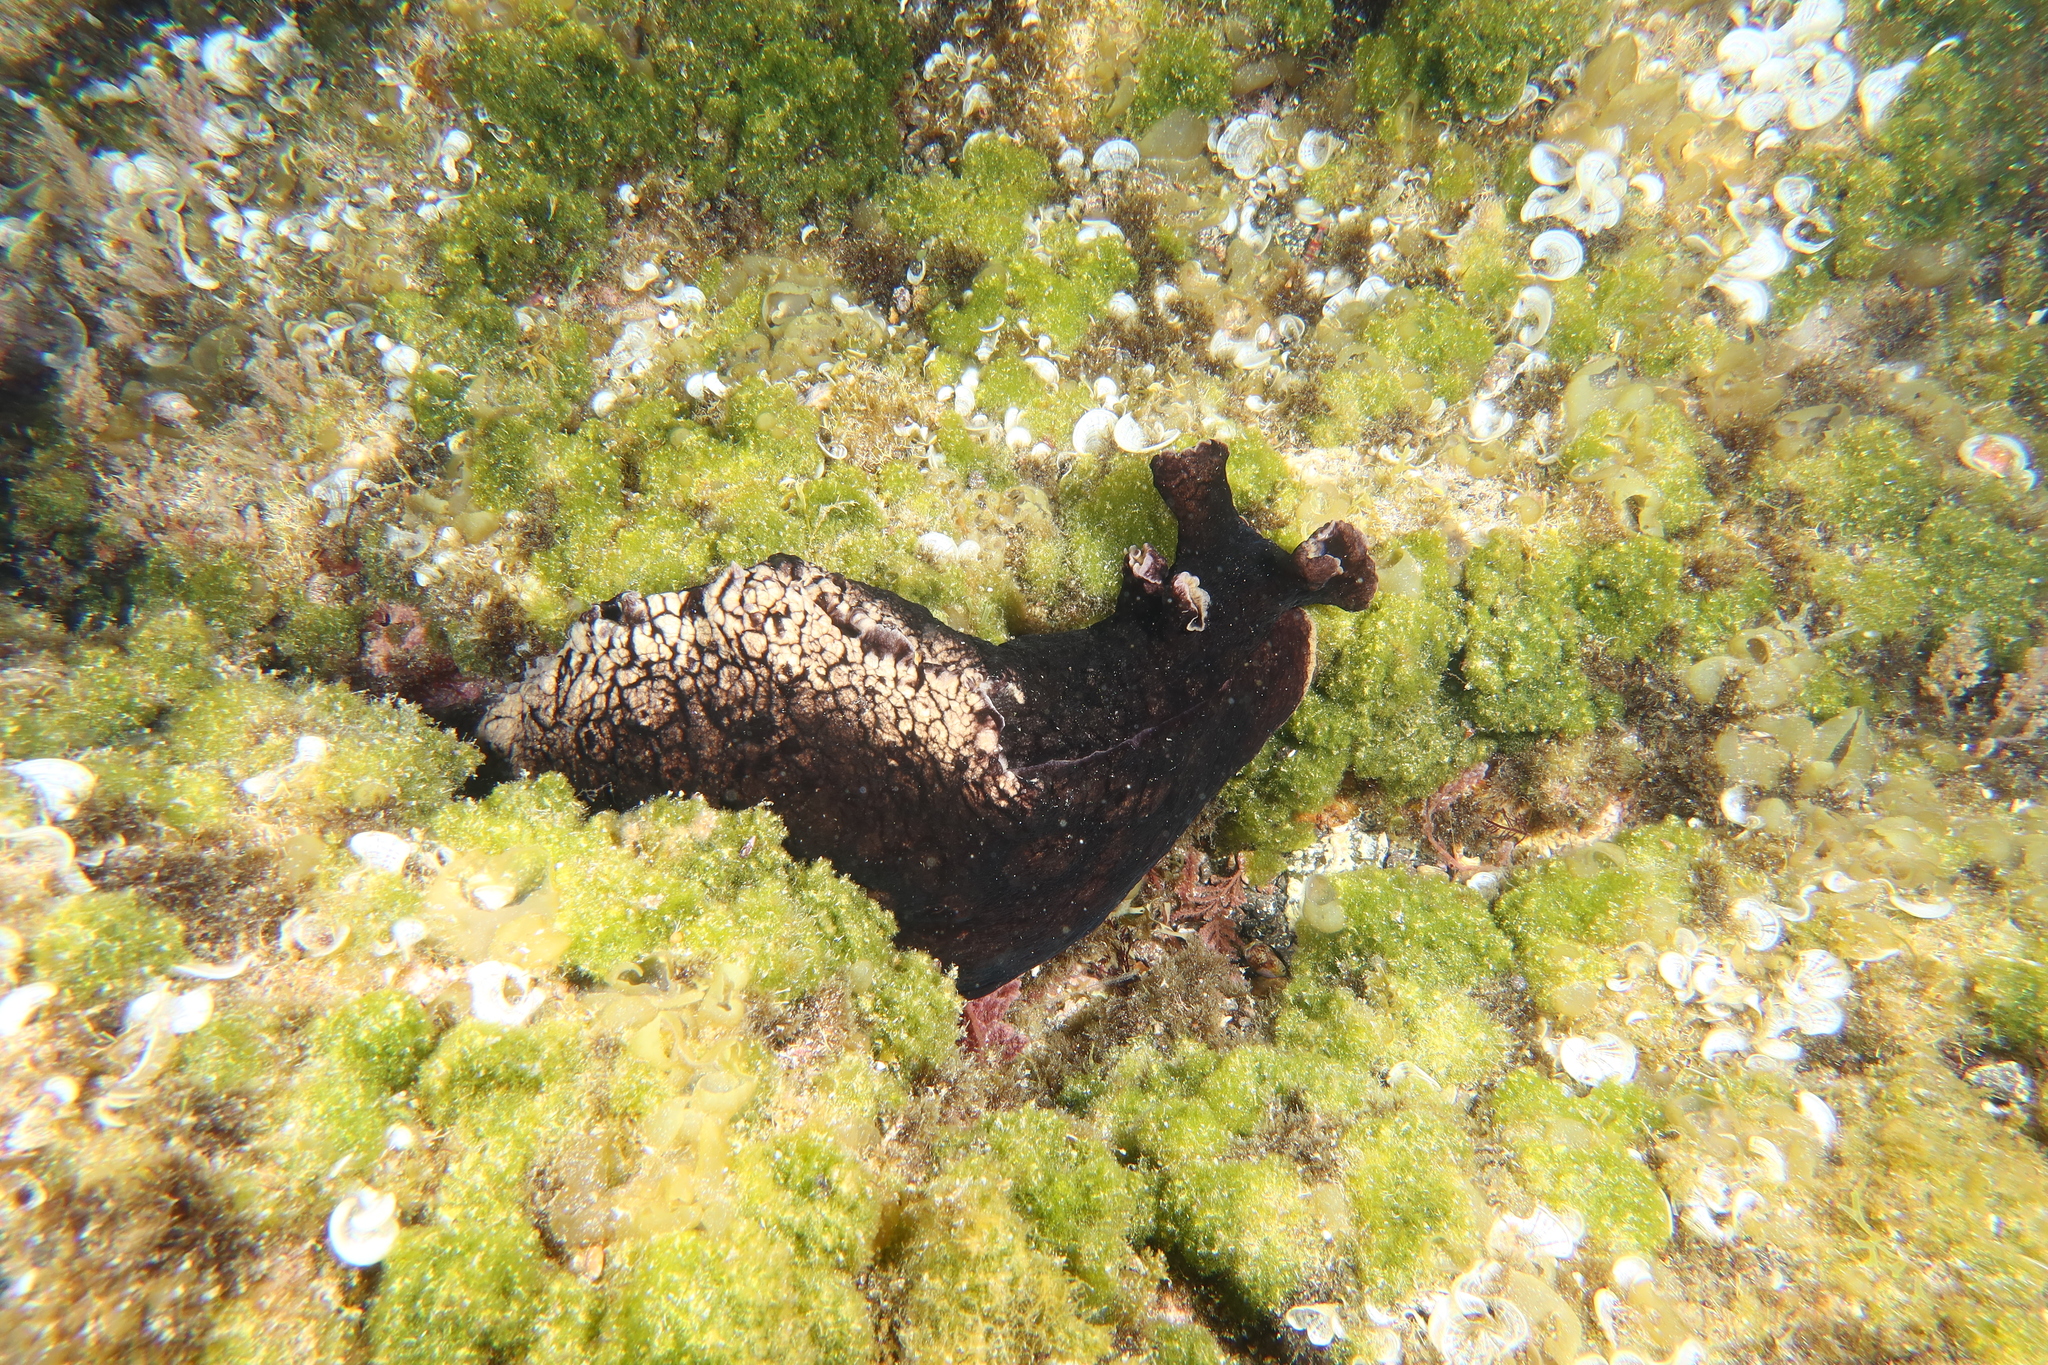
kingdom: Animalia
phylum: Mollusca
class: Gastropoda
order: Aplysiida
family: Aplysiidae
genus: Aplysia
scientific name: Aplysia dactylomela
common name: Large-spotted sea hare
